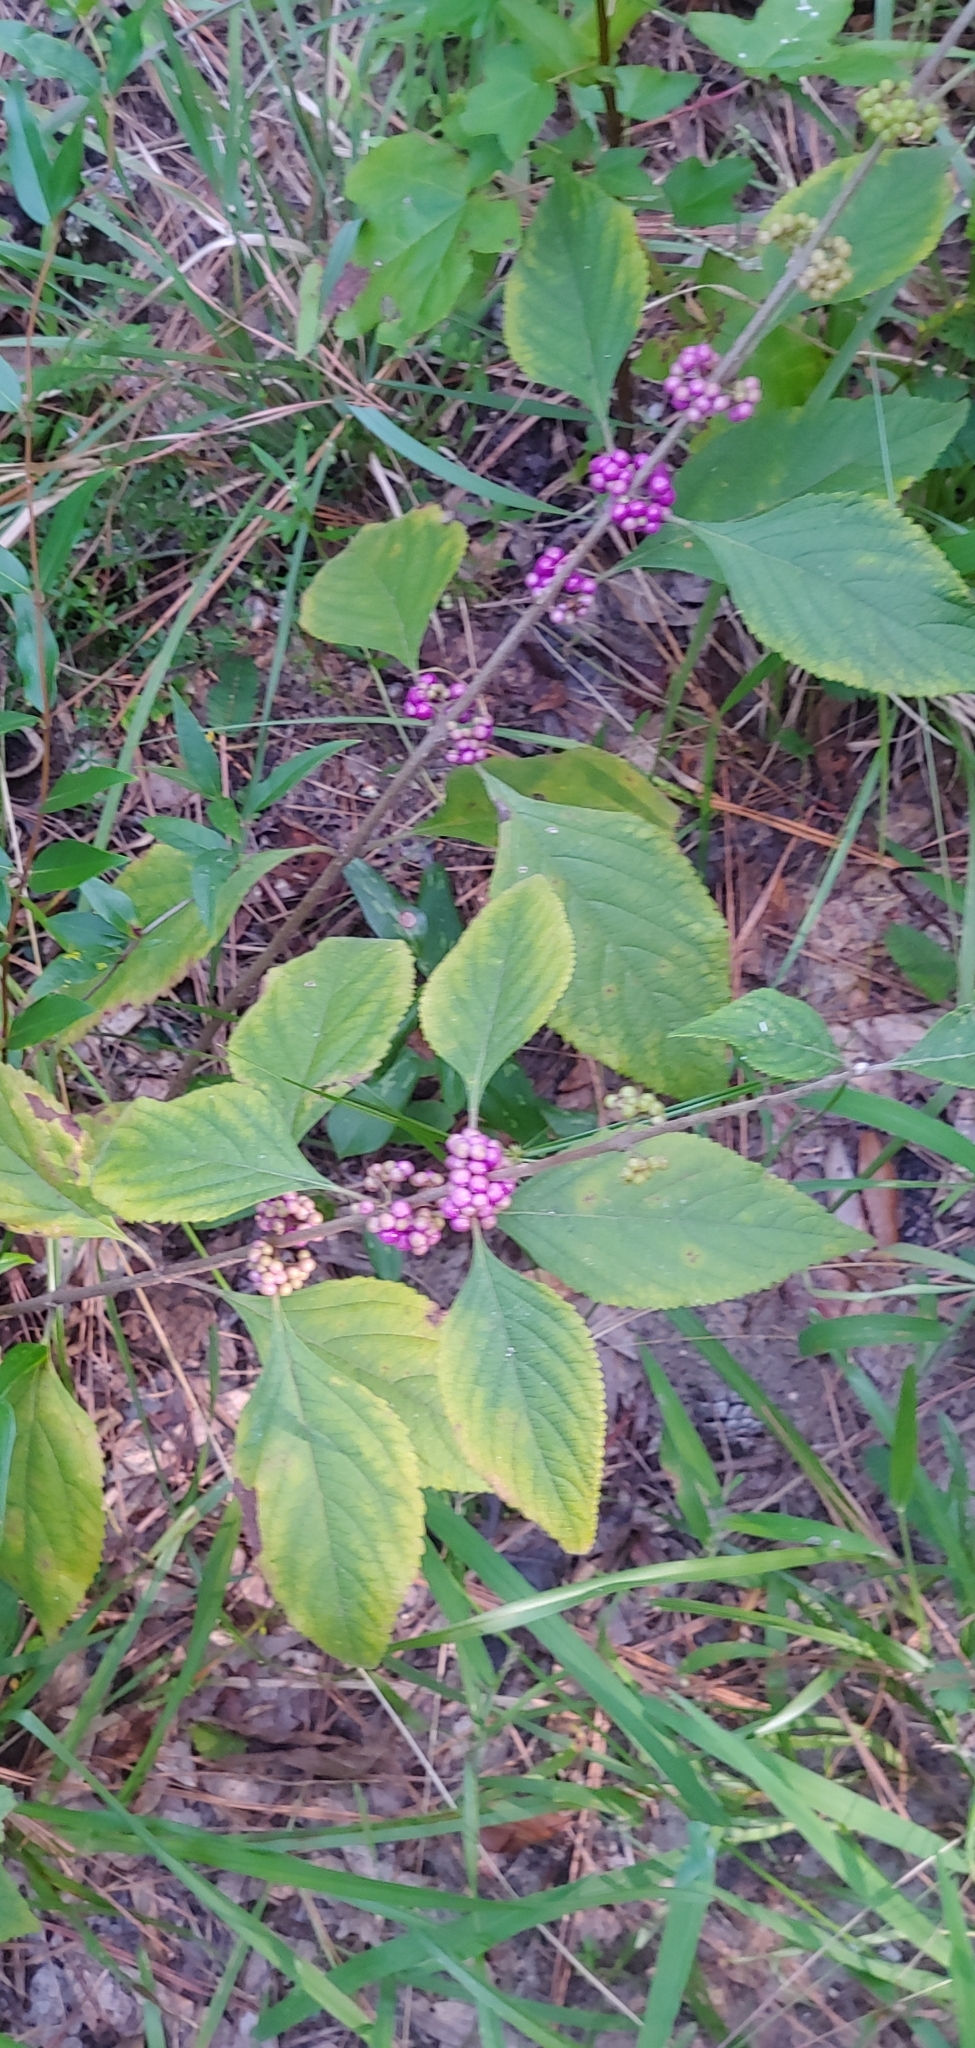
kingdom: Plantae
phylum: Tracheophyta
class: Magnoliopsida
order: Lamiales
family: Lamiaceae
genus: Callicarpa
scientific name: Callicarpa americana
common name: American beautyberry
